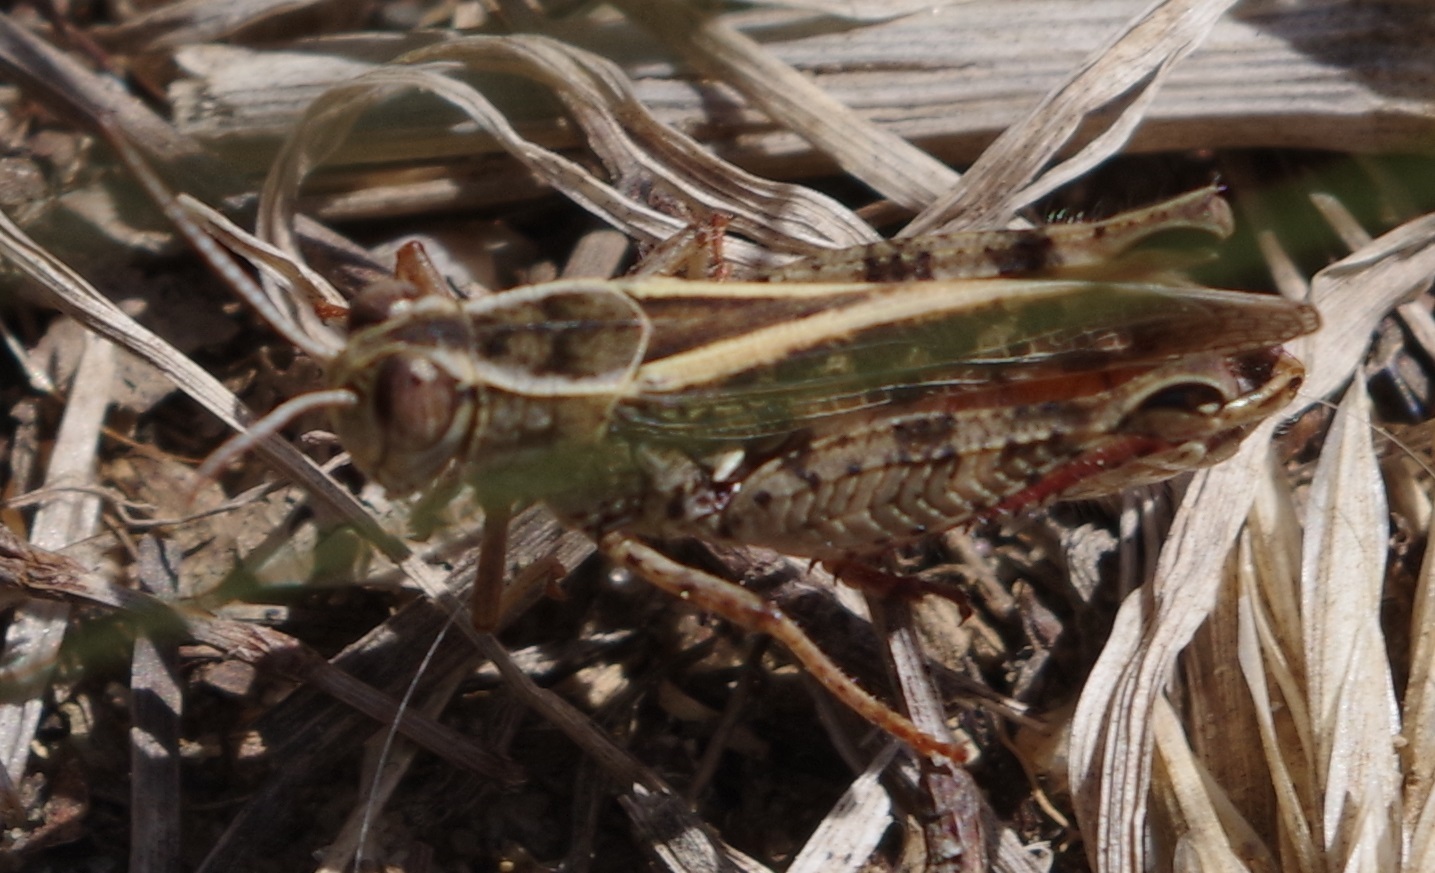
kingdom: Animalia
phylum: Arthropoda
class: Insecta
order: Orthoptera
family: Acrididae
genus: Calliptamus
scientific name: Calliptamus italicus
